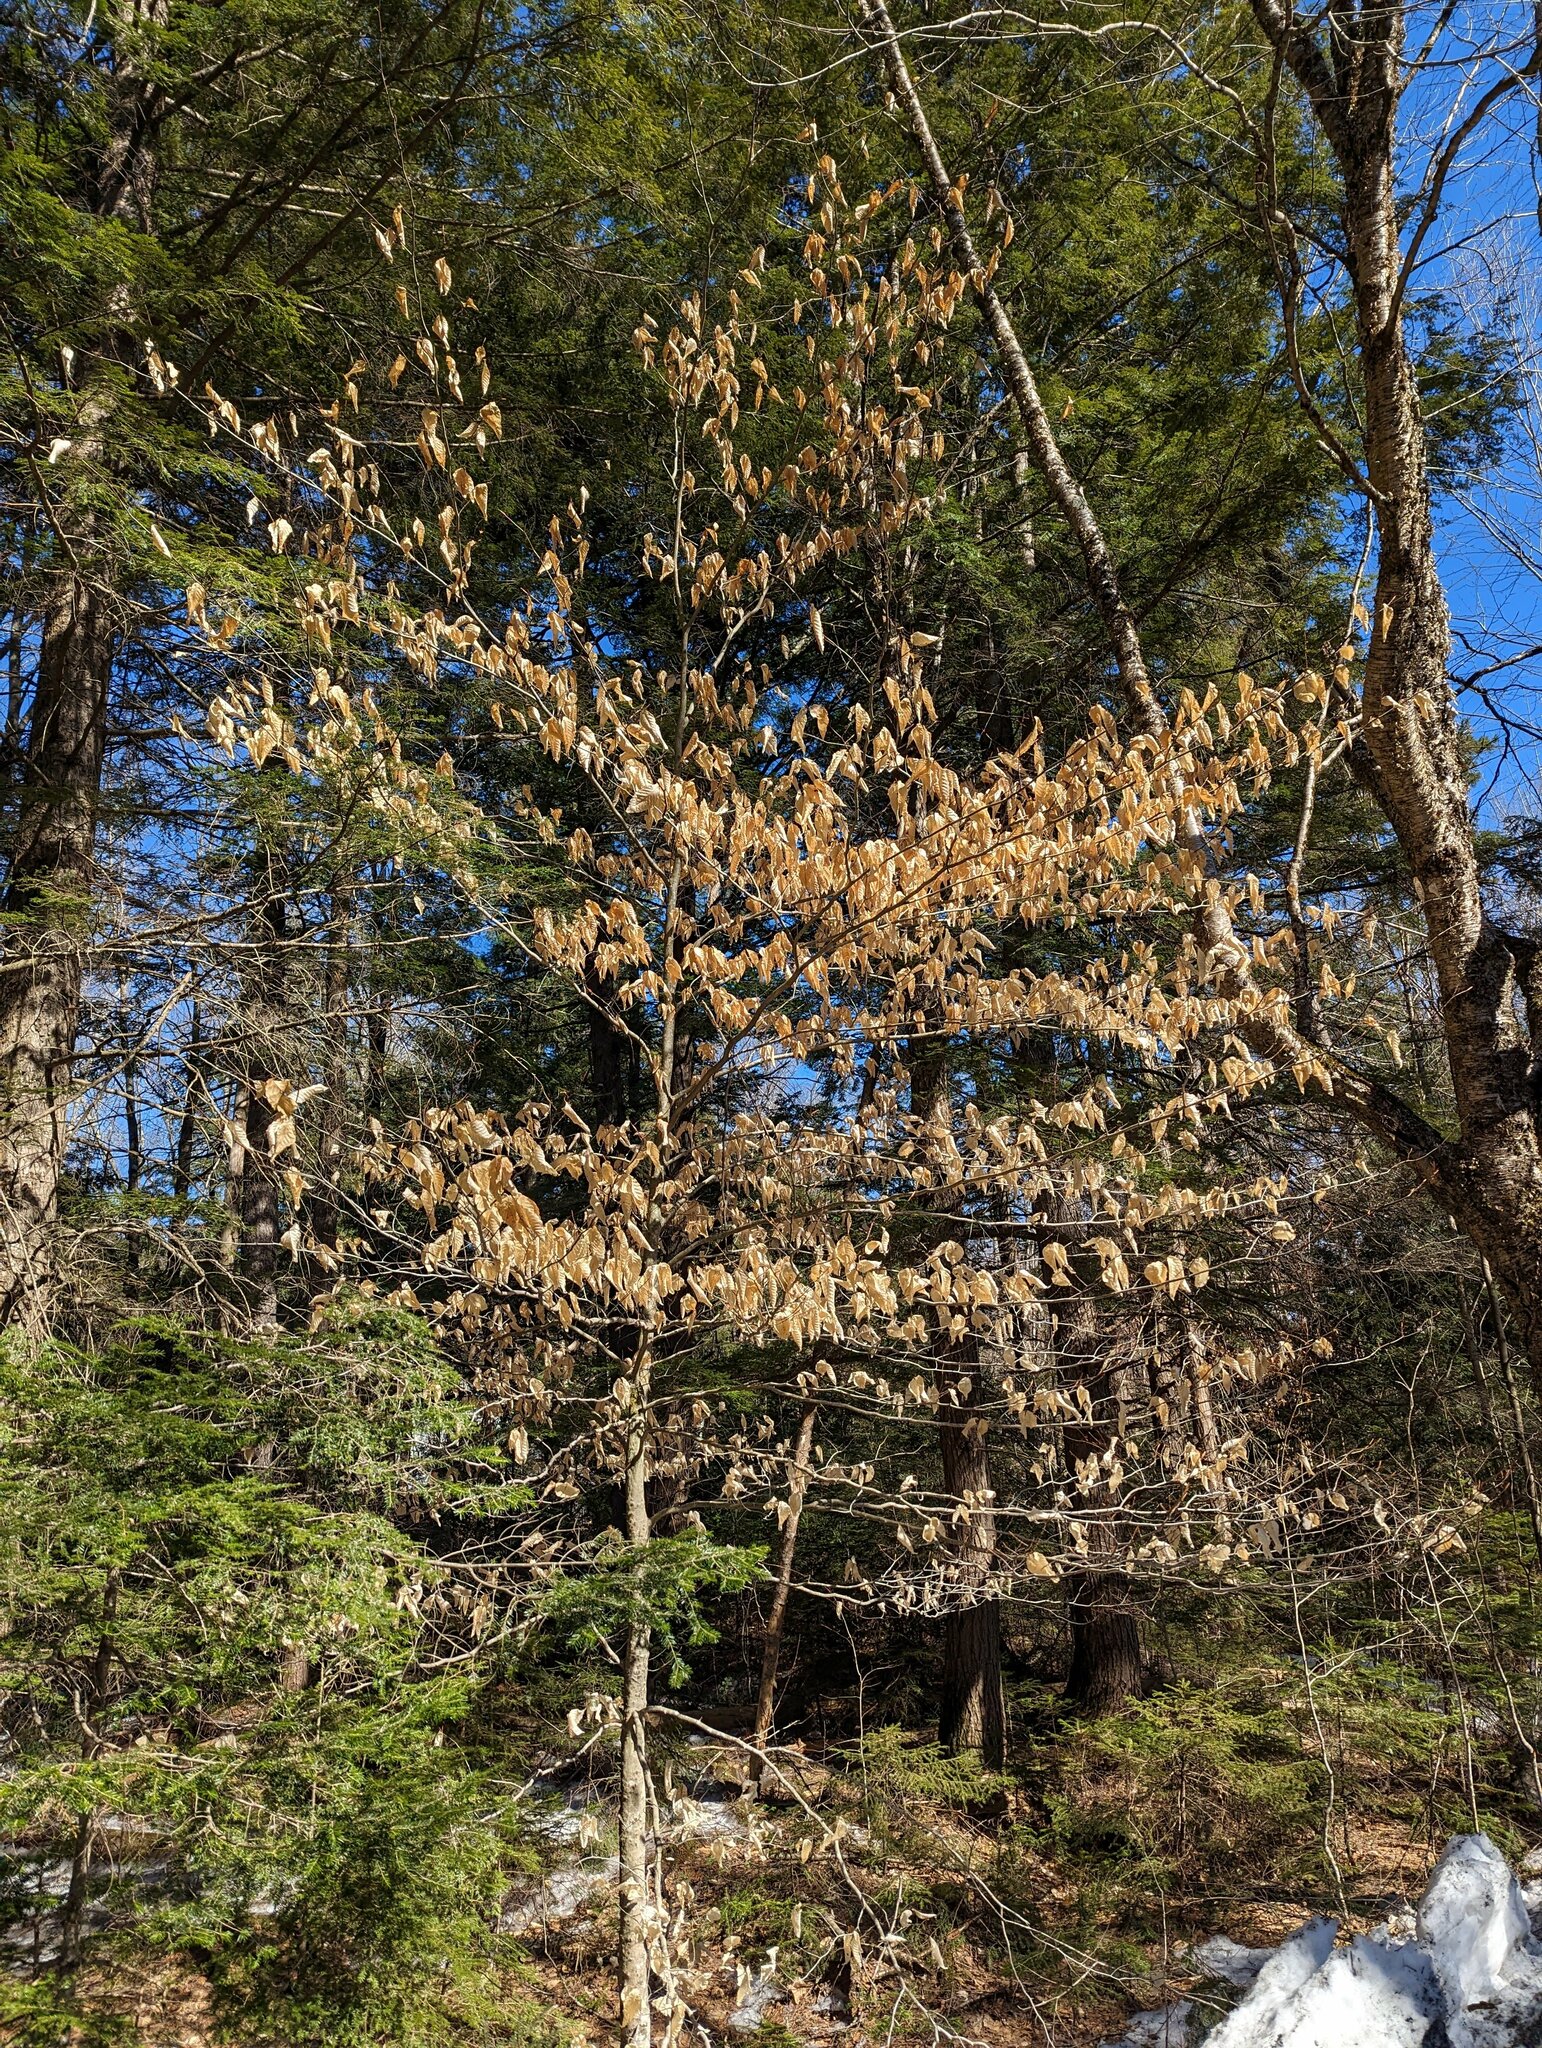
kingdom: Plantae
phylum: Tracheophyta
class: Magnoliopsida
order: Fagales
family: Fagaceae
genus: Fagus
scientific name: Fagus grandifolia
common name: American beech
